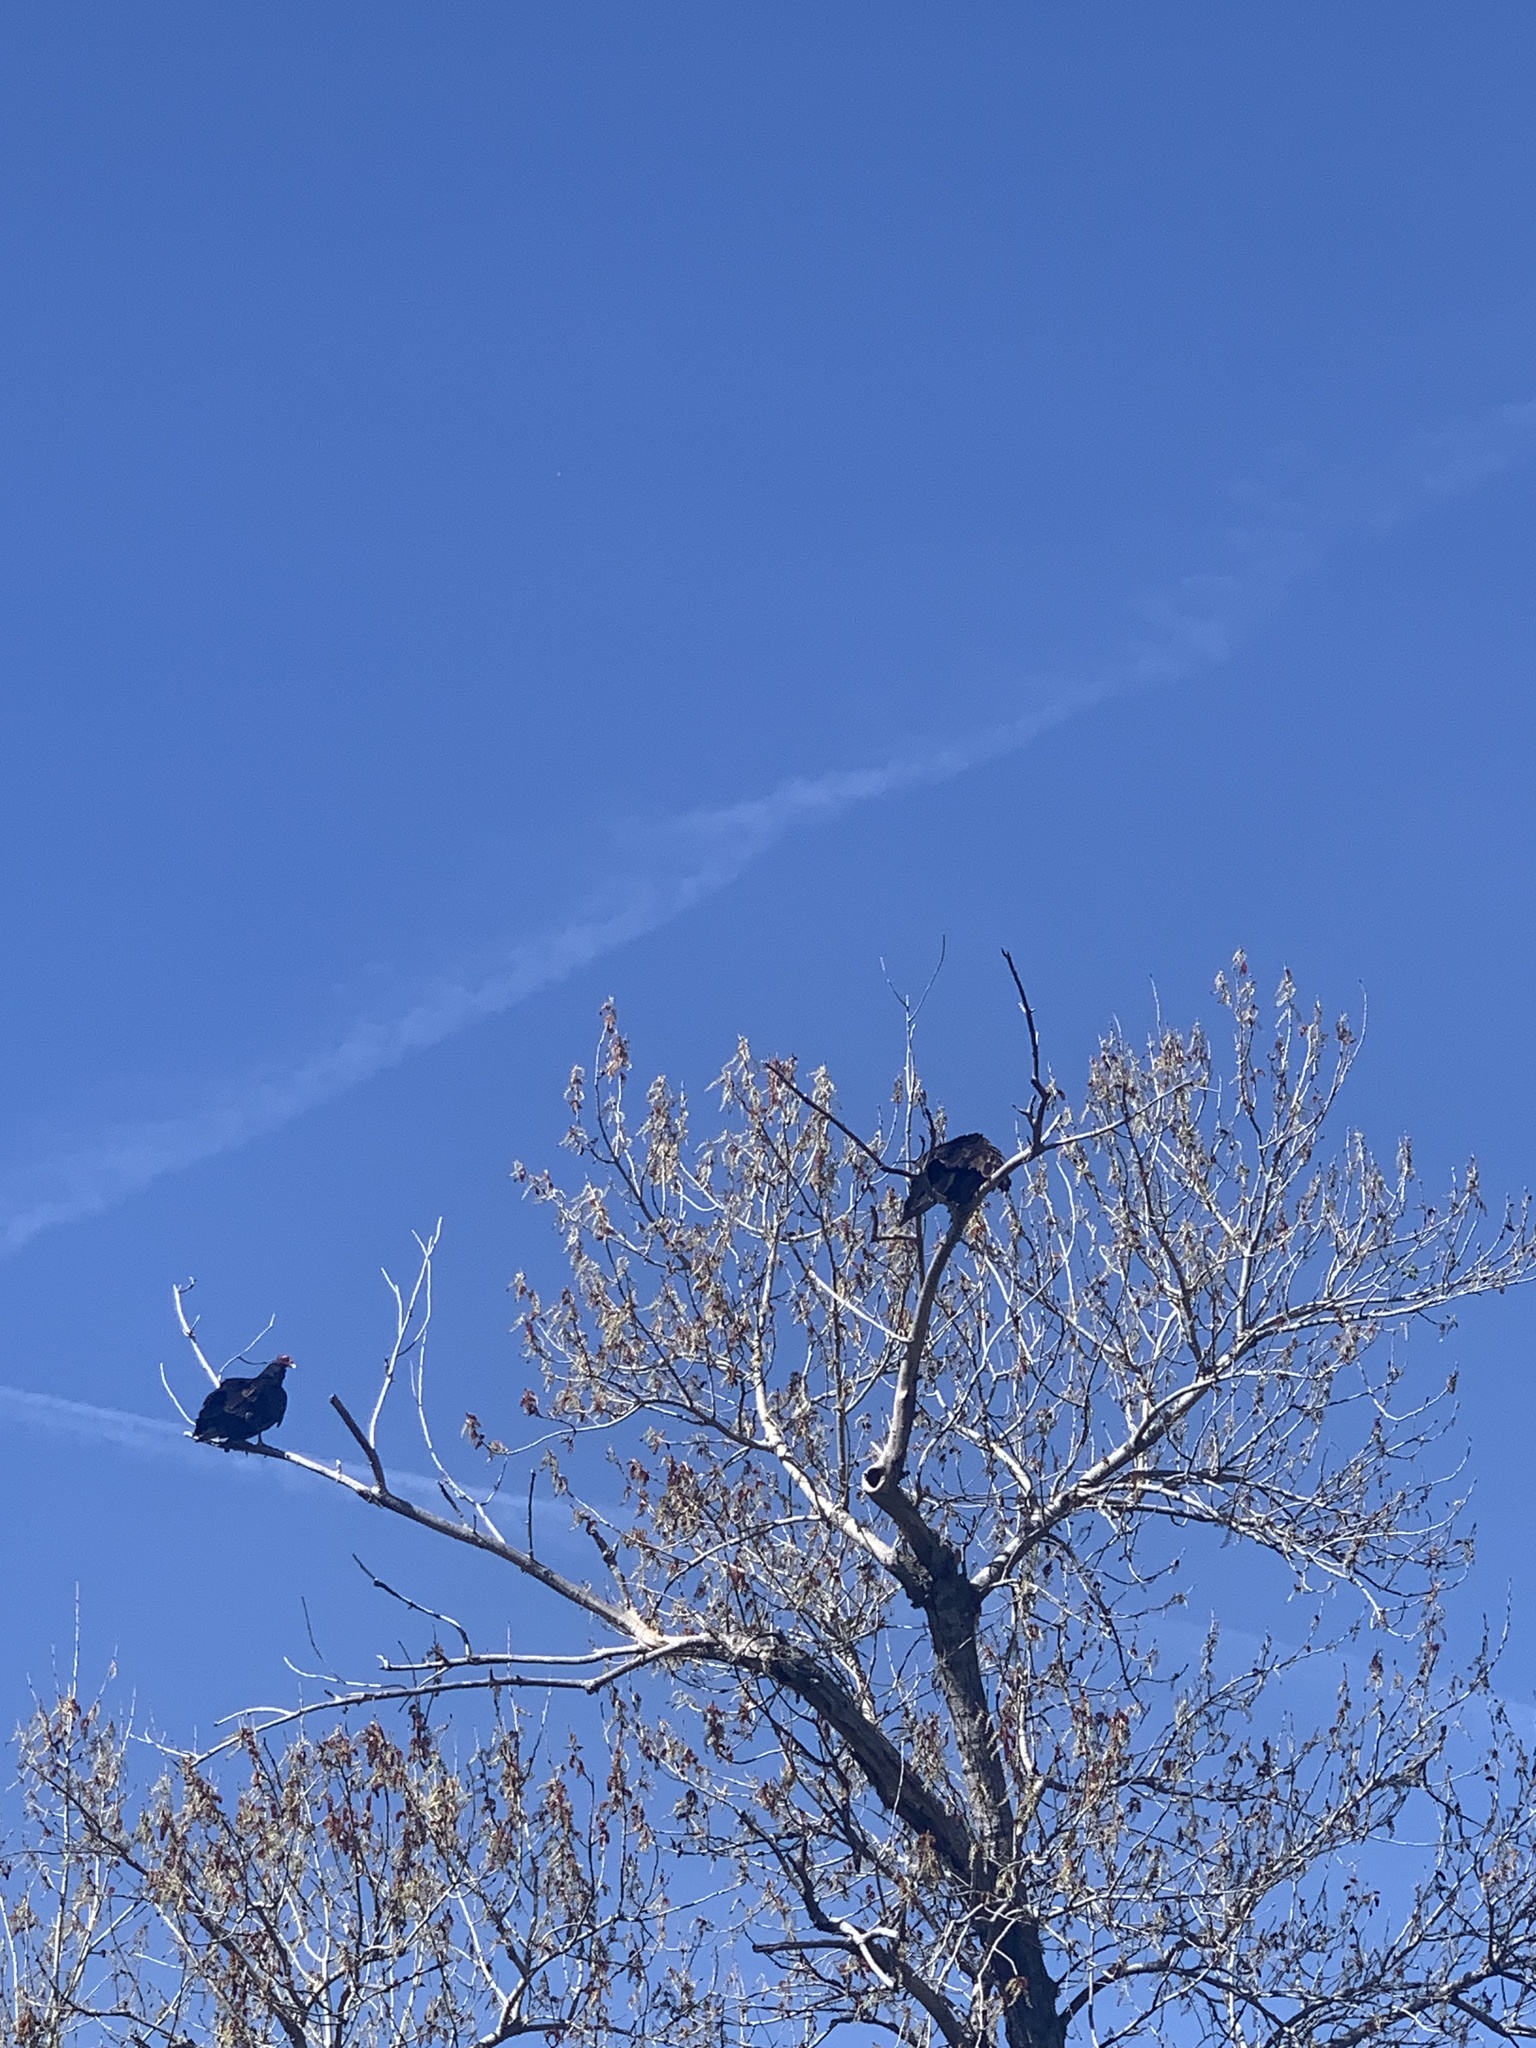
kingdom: Animalia
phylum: Chordata
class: Aves
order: Accipitriformes
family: Cathartidae
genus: Cathartes
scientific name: Cathartes aura
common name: Turkey vulture
